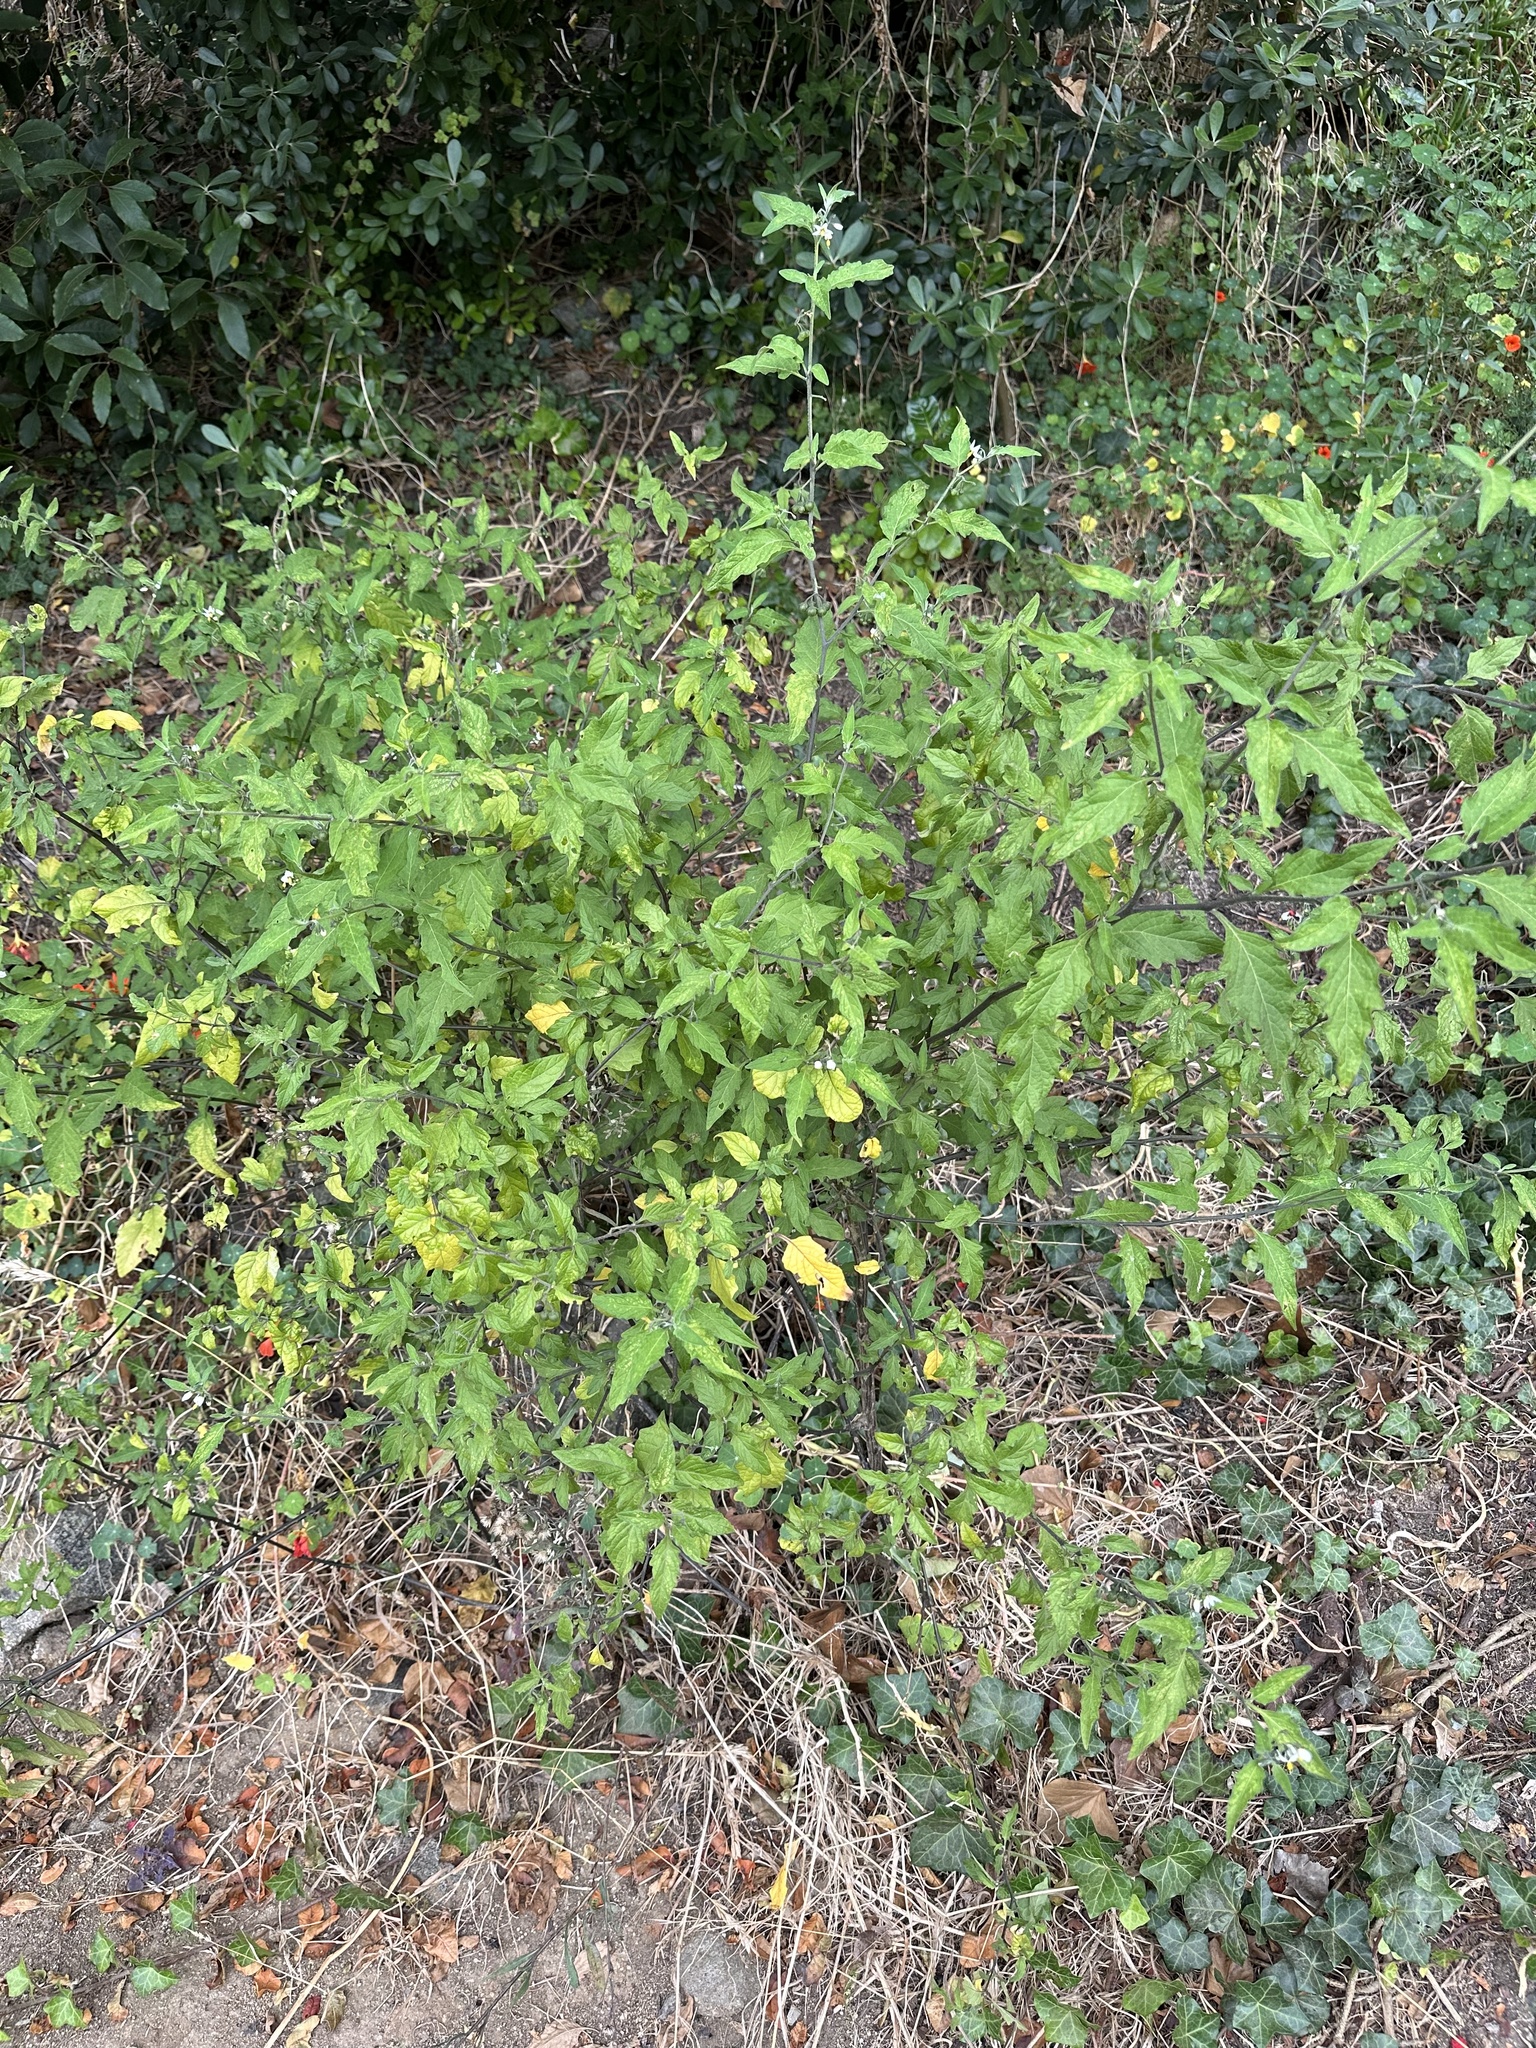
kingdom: Plantae
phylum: Tracheophyta
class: Magnoliopsida
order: Solanales
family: Solanaceae
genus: Solanum
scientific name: Solanum furcatum
